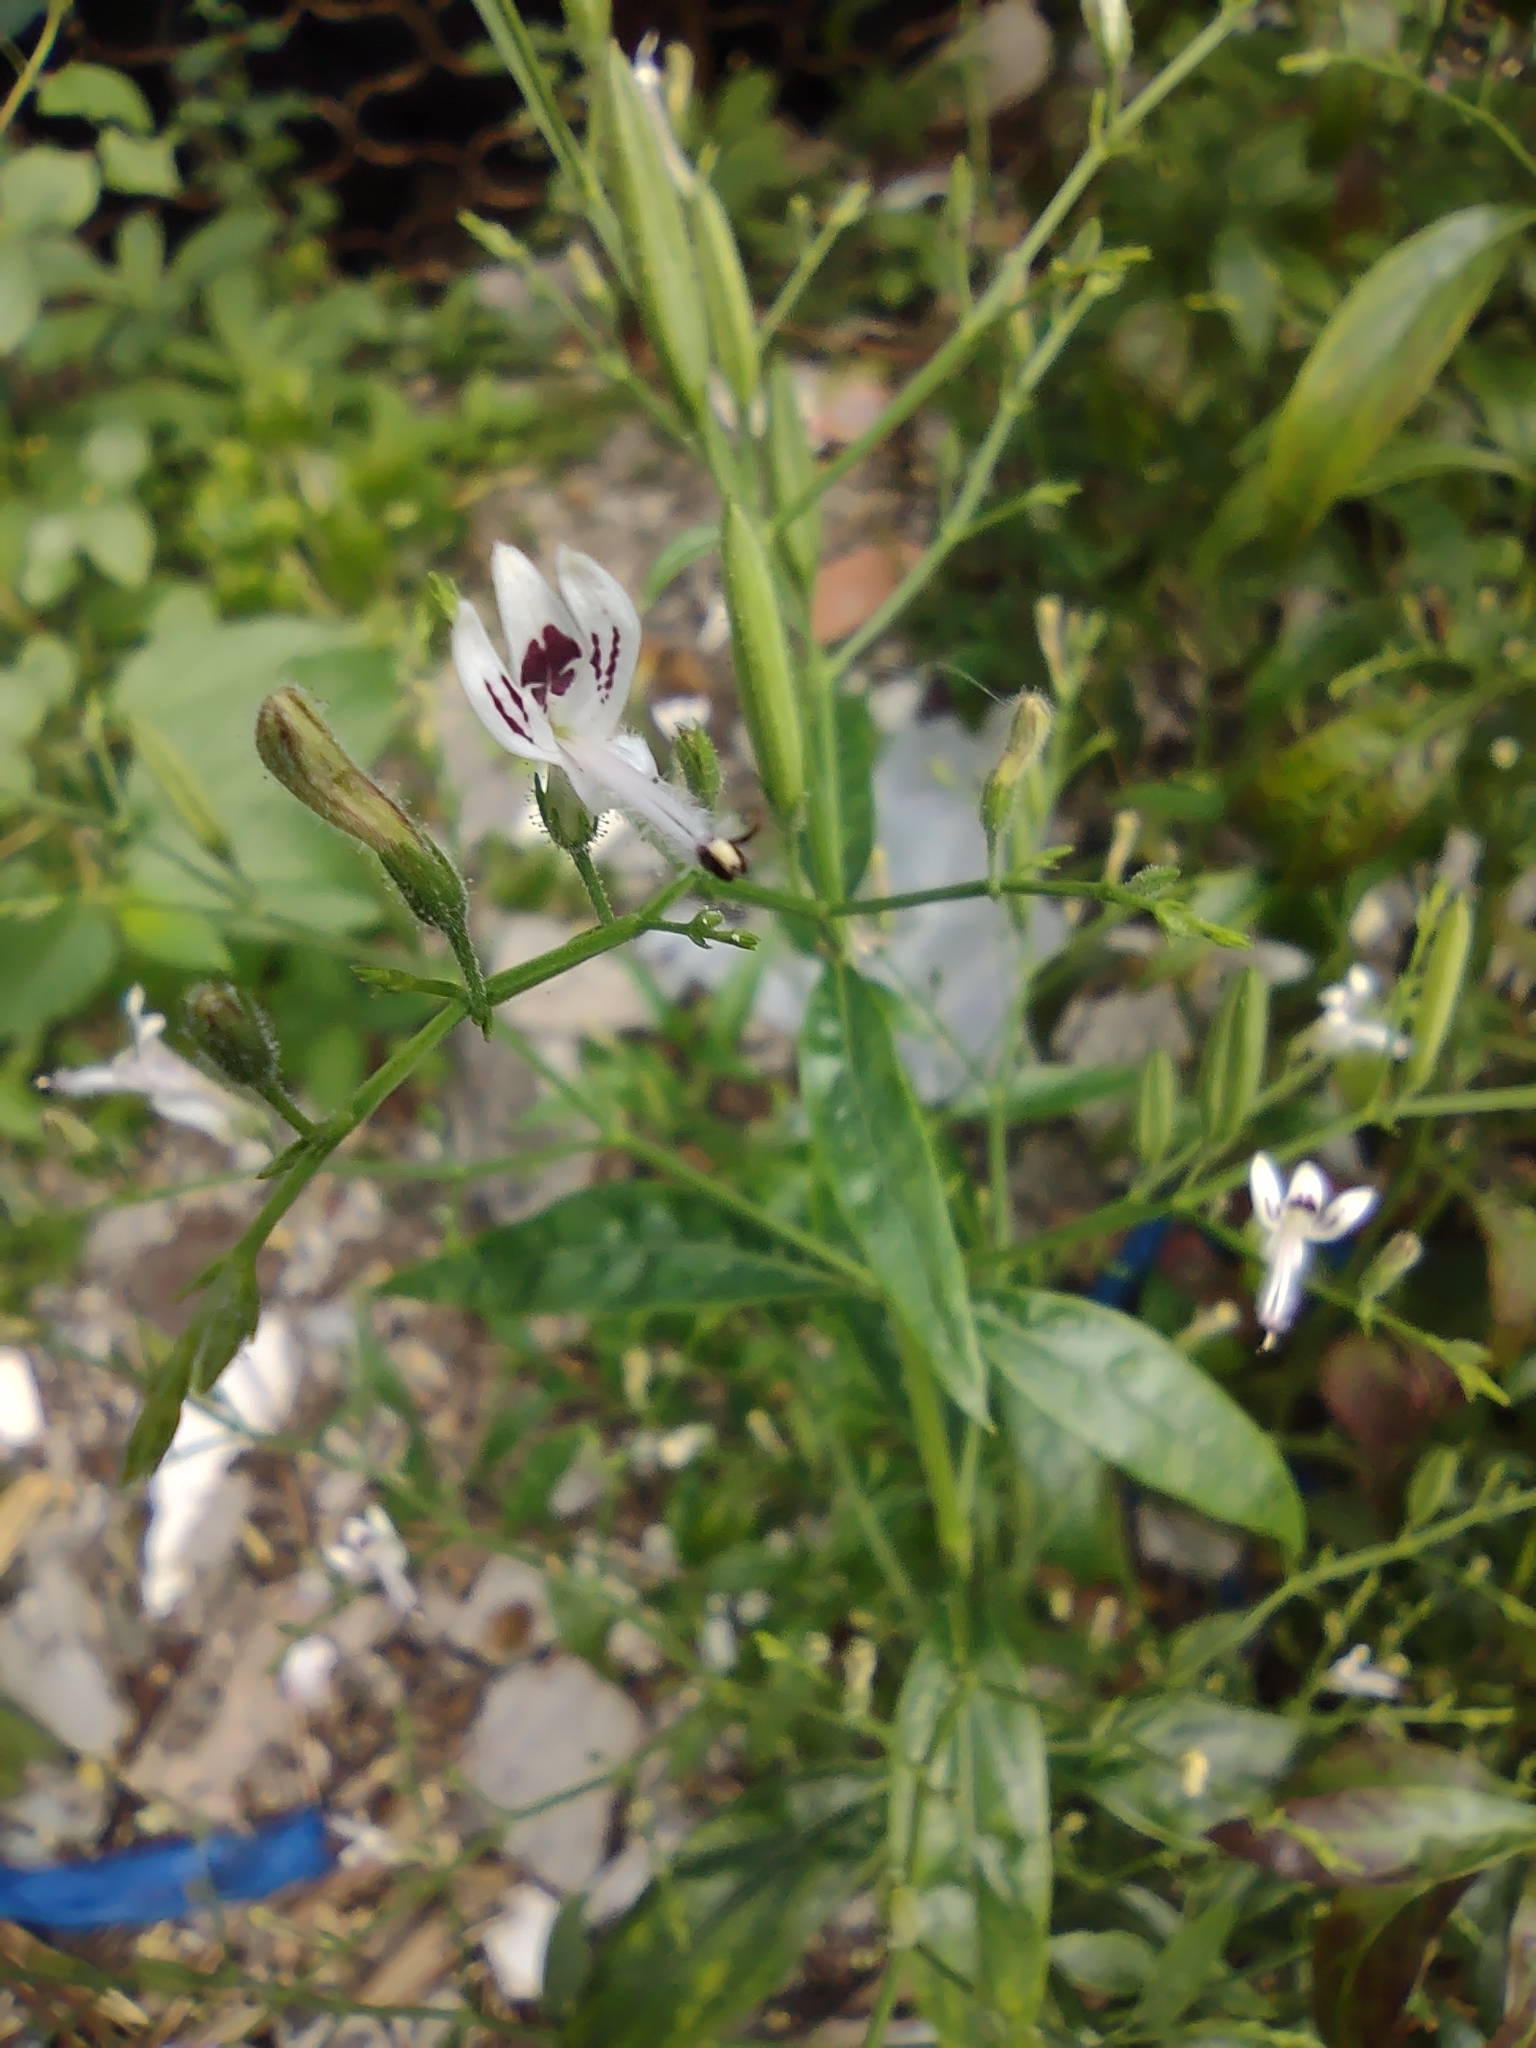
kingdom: Plantae
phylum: Tracheophyta
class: Magnoliopsida
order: Lamiales
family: Acanthaceae
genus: Andrographis
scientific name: Andrographis paniculata
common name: Green chireta
